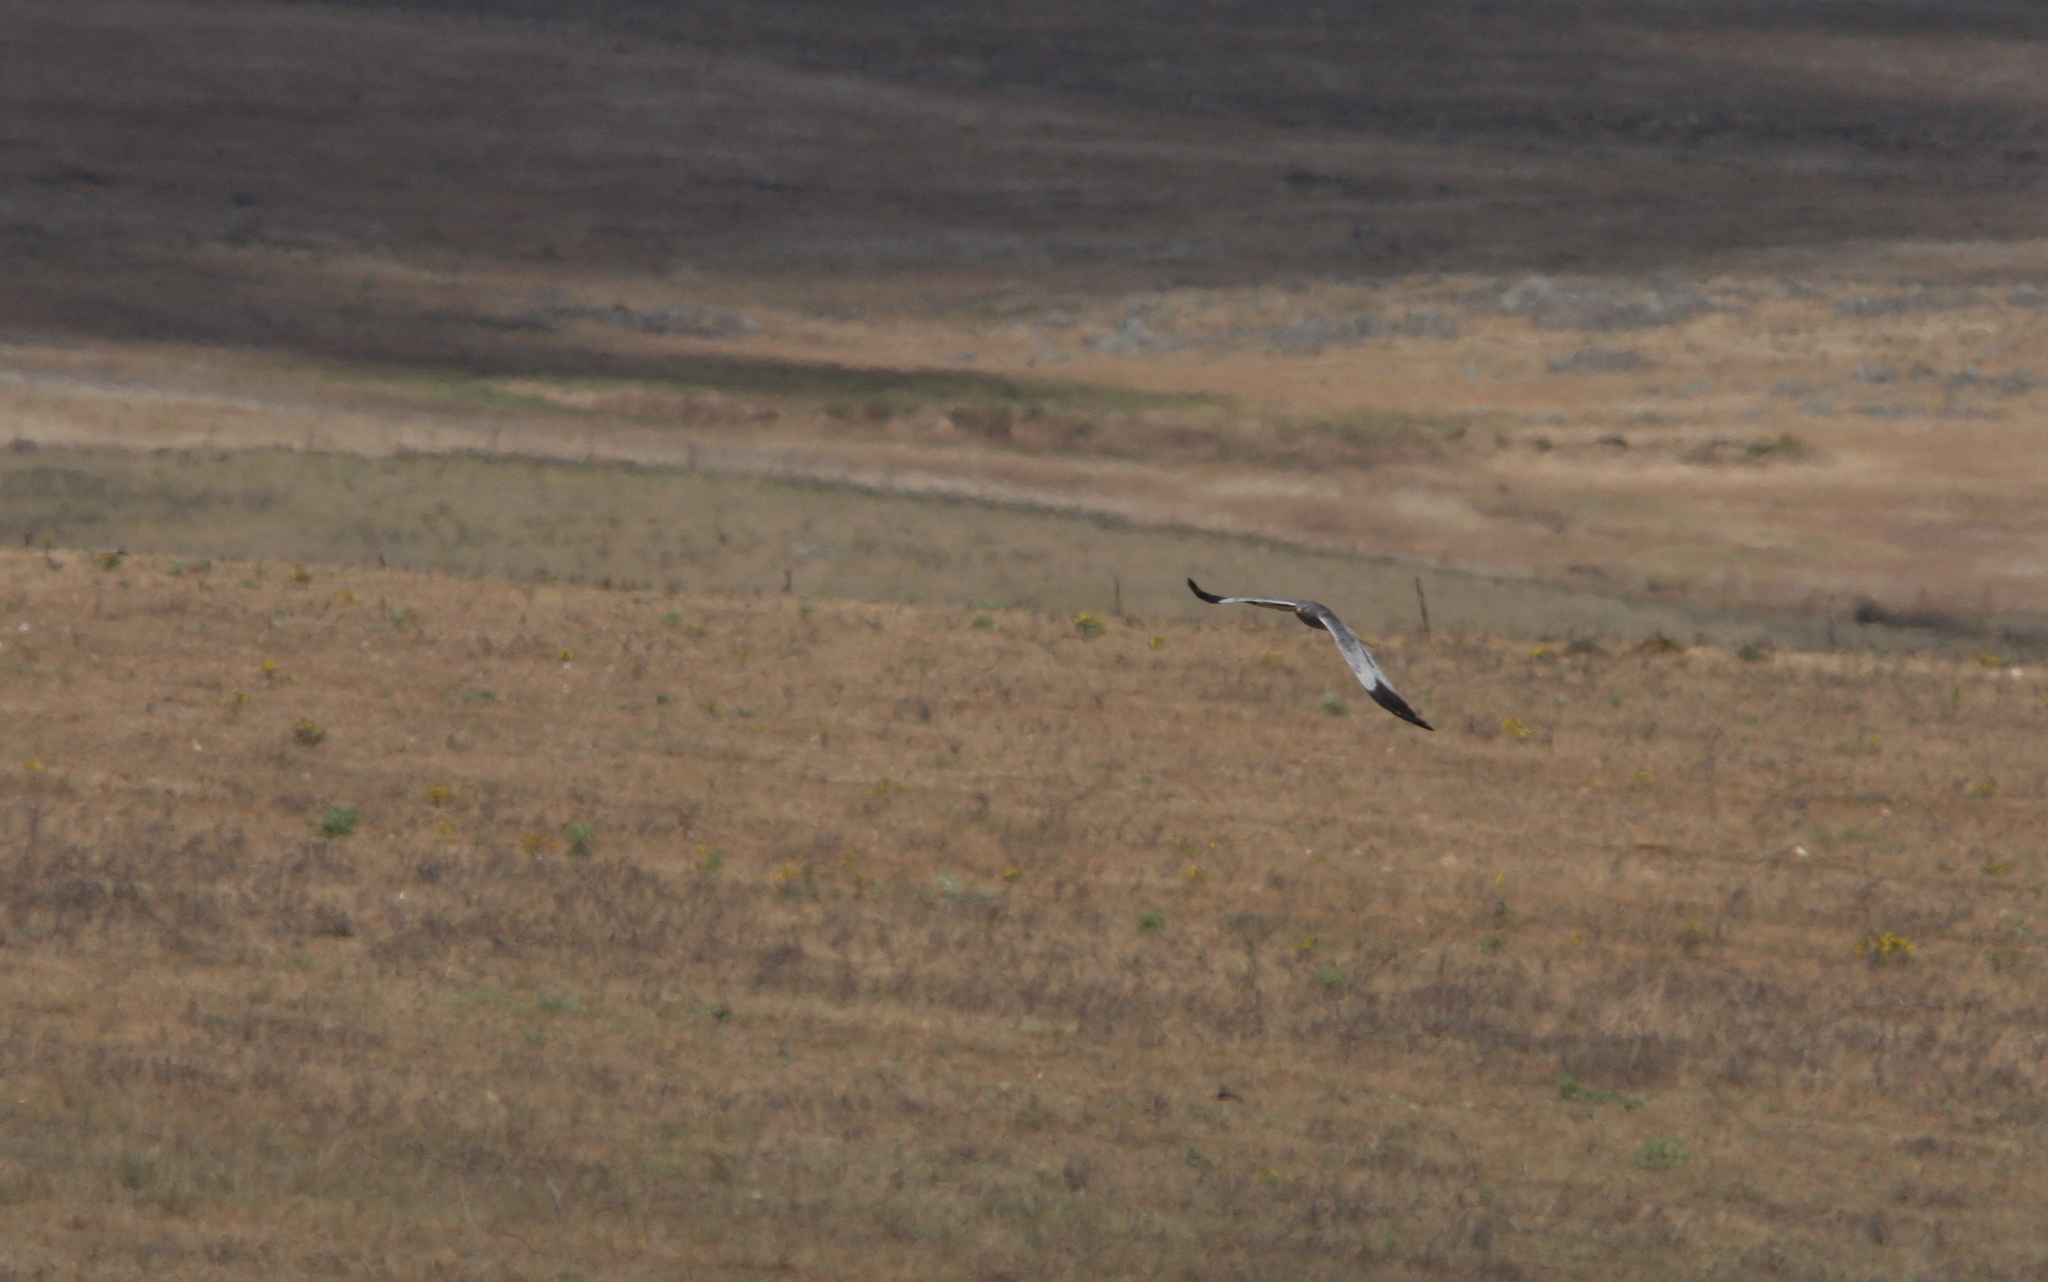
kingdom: Animalia
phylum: Chordata
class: Aves
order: Accipitriformes
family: Accipitridae
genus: Circus
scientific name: Circus pygargus
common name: Montagu's harrier
